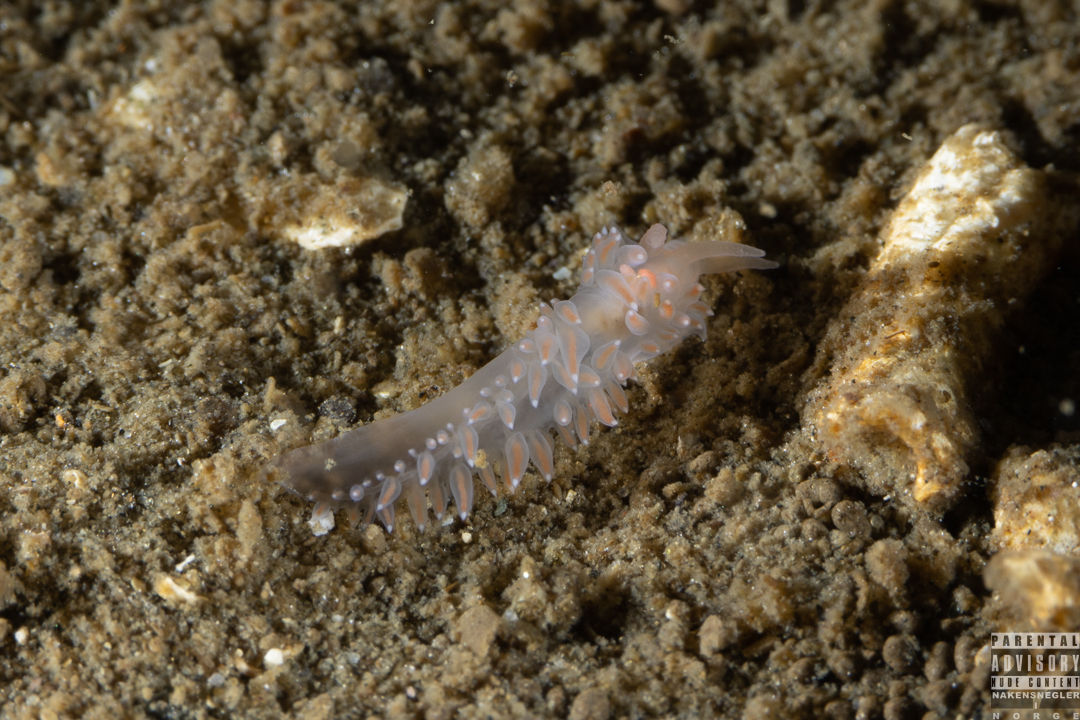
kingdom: Animalia
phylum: Mollusca
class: Gastropoda
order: Nudibranchia
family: Coryphellidae
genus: Coryphella
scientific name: Coryphella verrucosa
